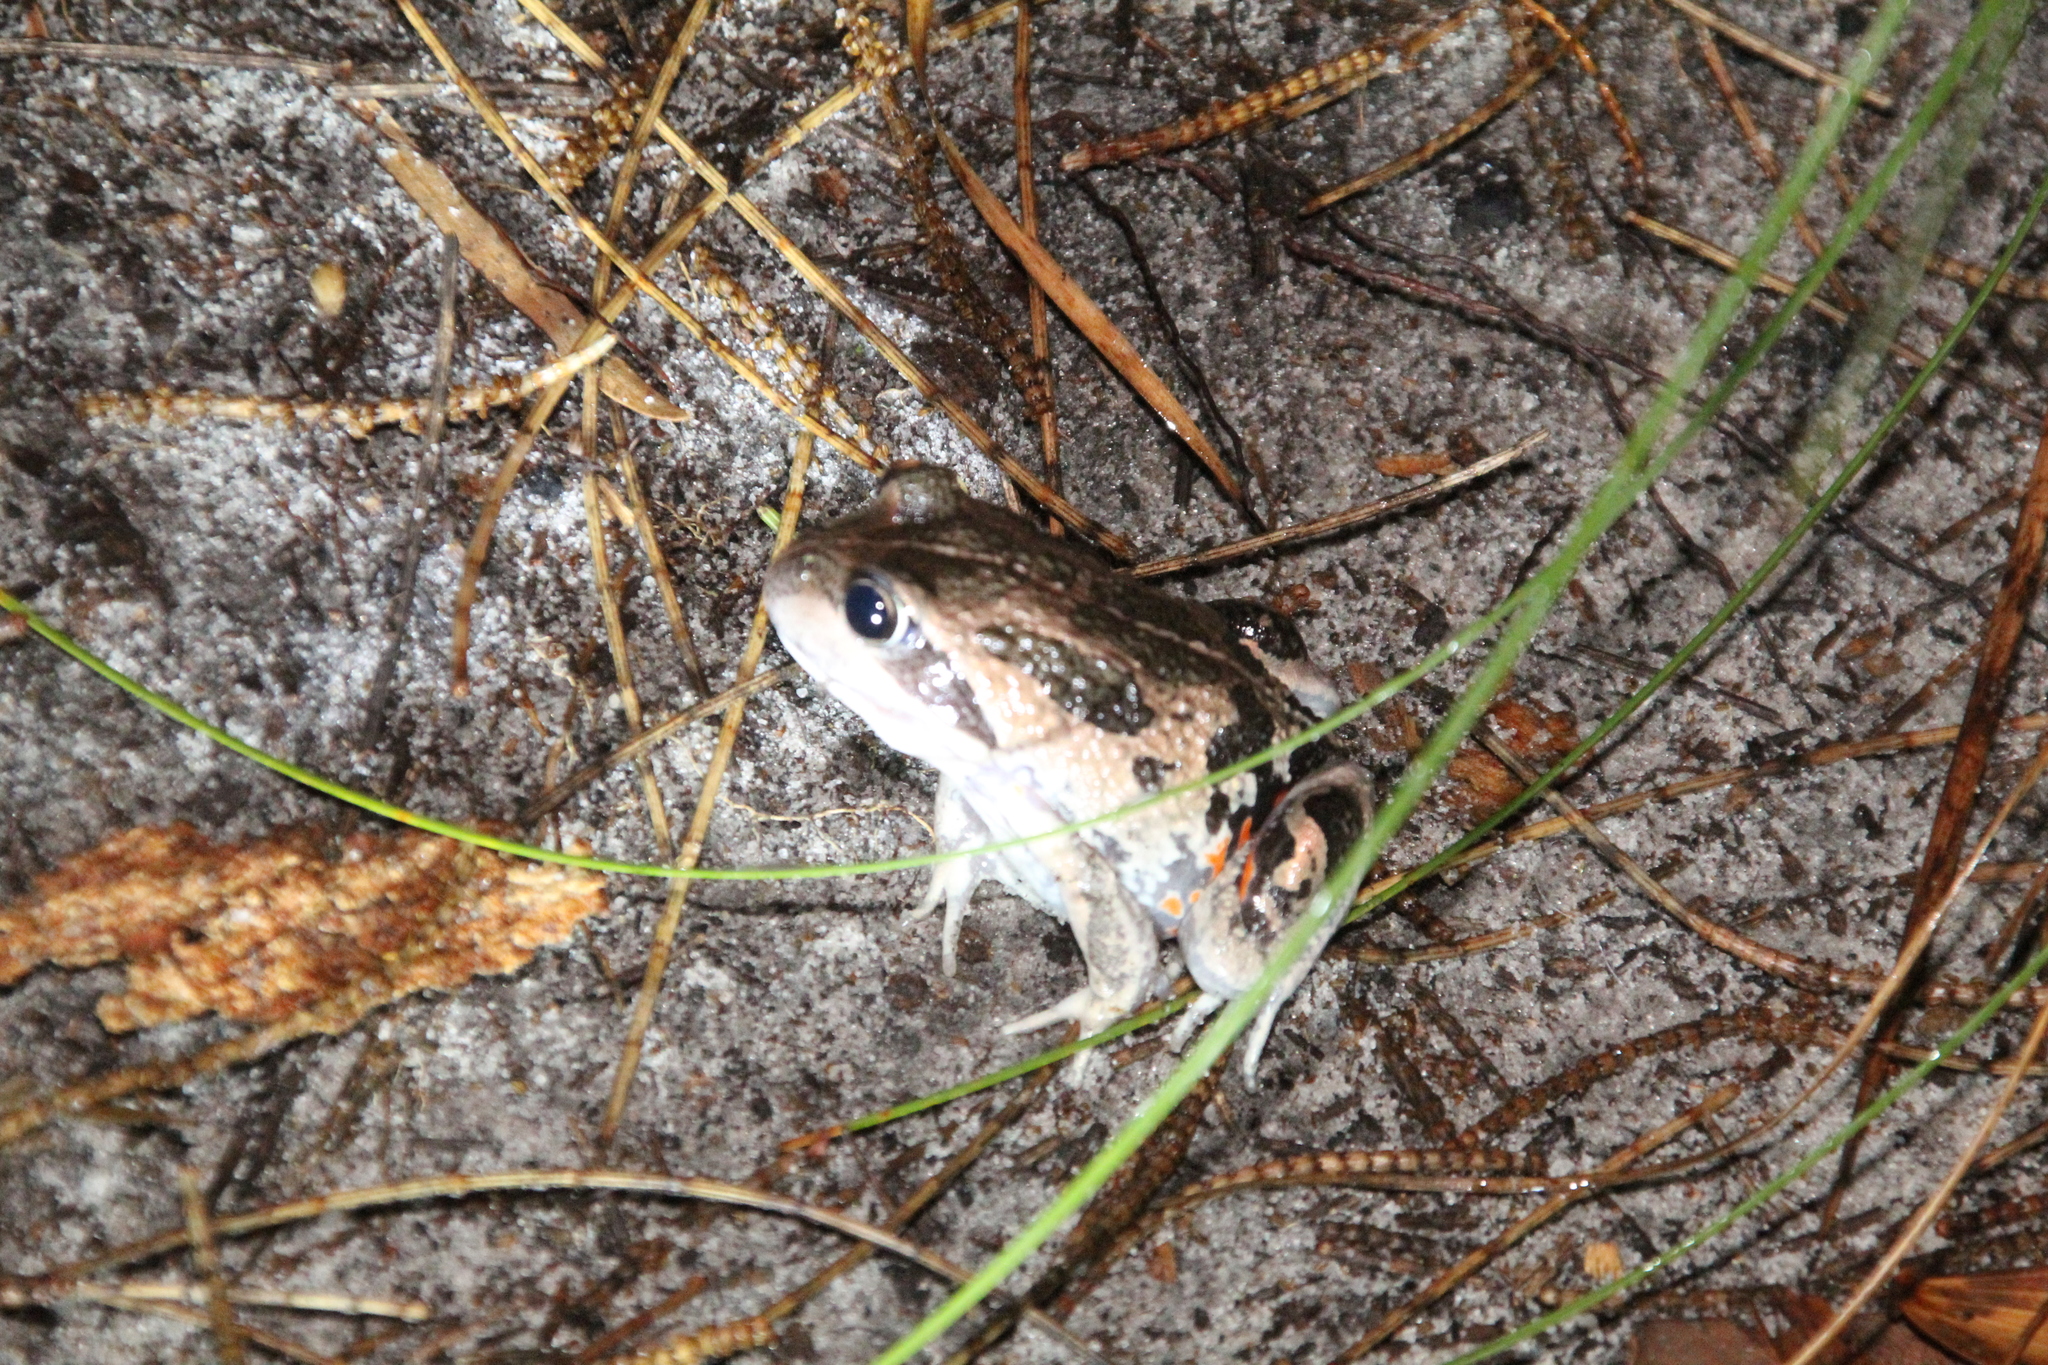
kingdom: Animalia
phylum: Chordata
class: Amphibia
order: Anura
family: Limnodynastidae
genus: Limnodynastes
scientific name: Limnodynastes dorsalis
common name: Banjo frog
